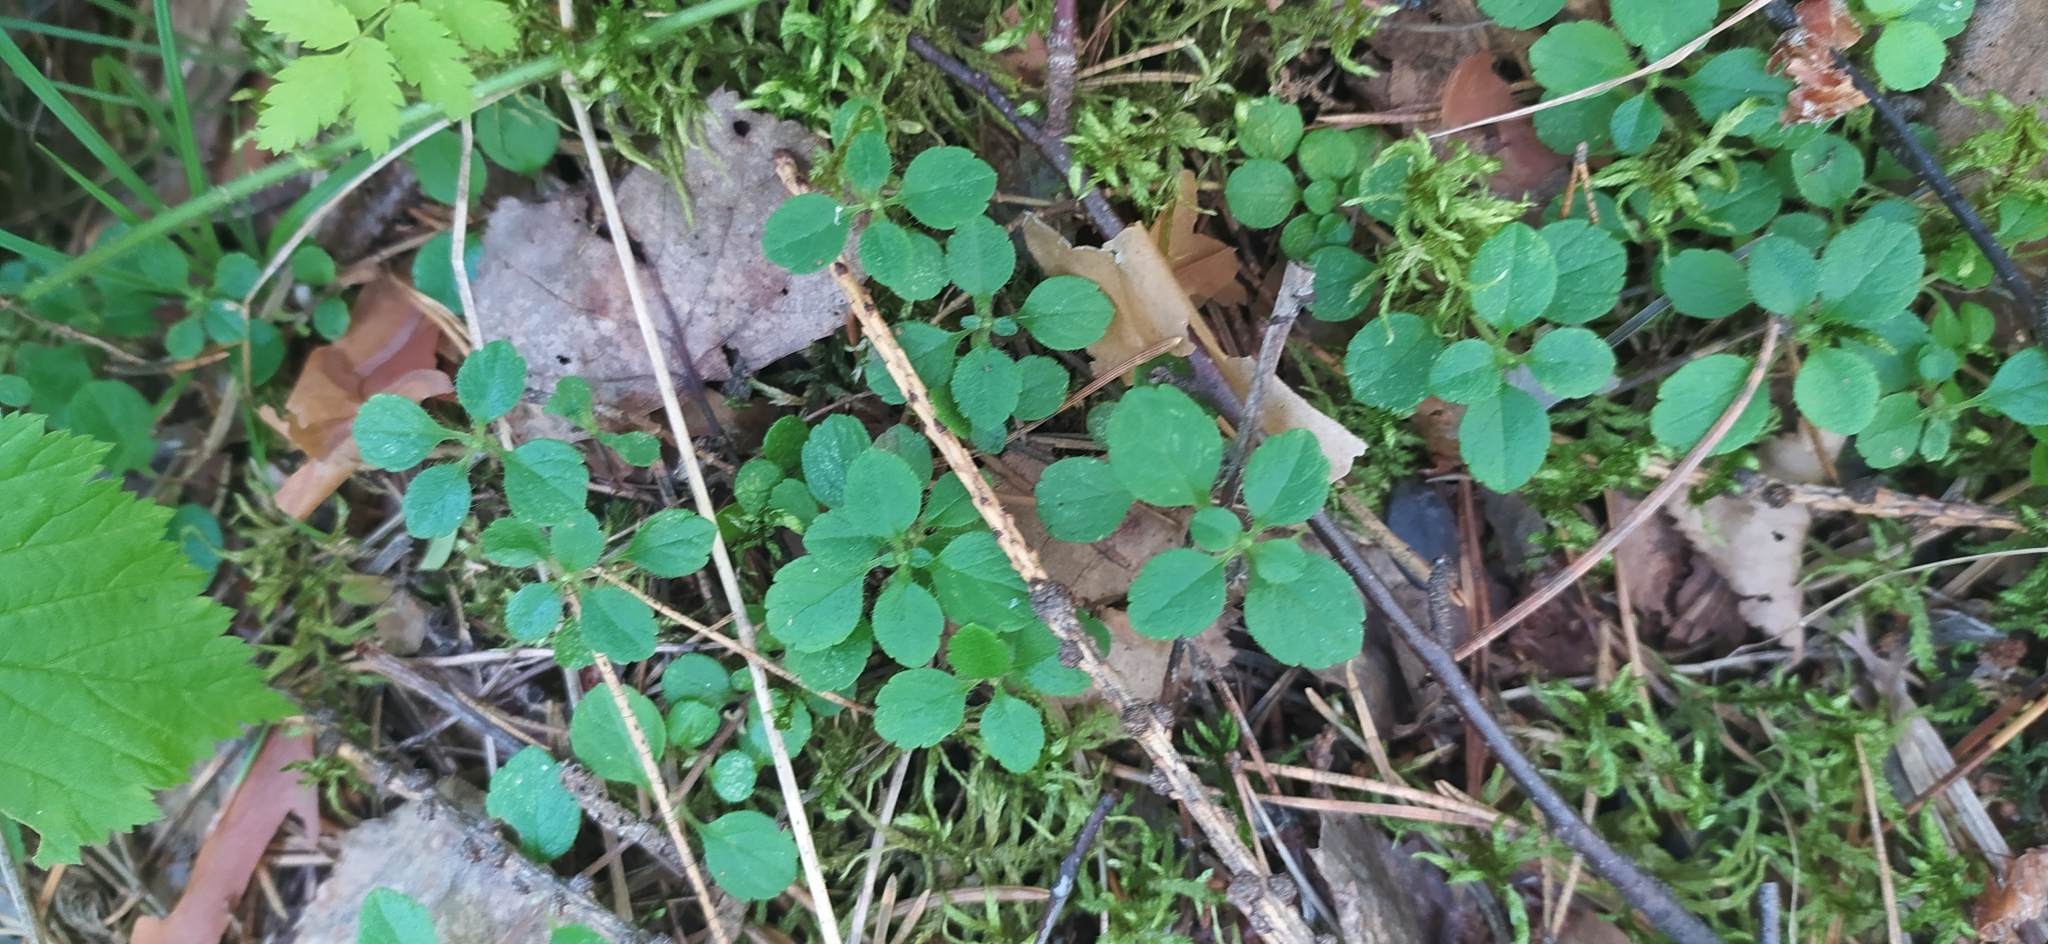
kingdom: Plantae
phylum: Tracheophyta
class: Magnoliopsida
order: Dipsacales
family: Caprifoliaceae
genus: Linnaea
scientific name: Linnaea borealis
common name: Twinflower
